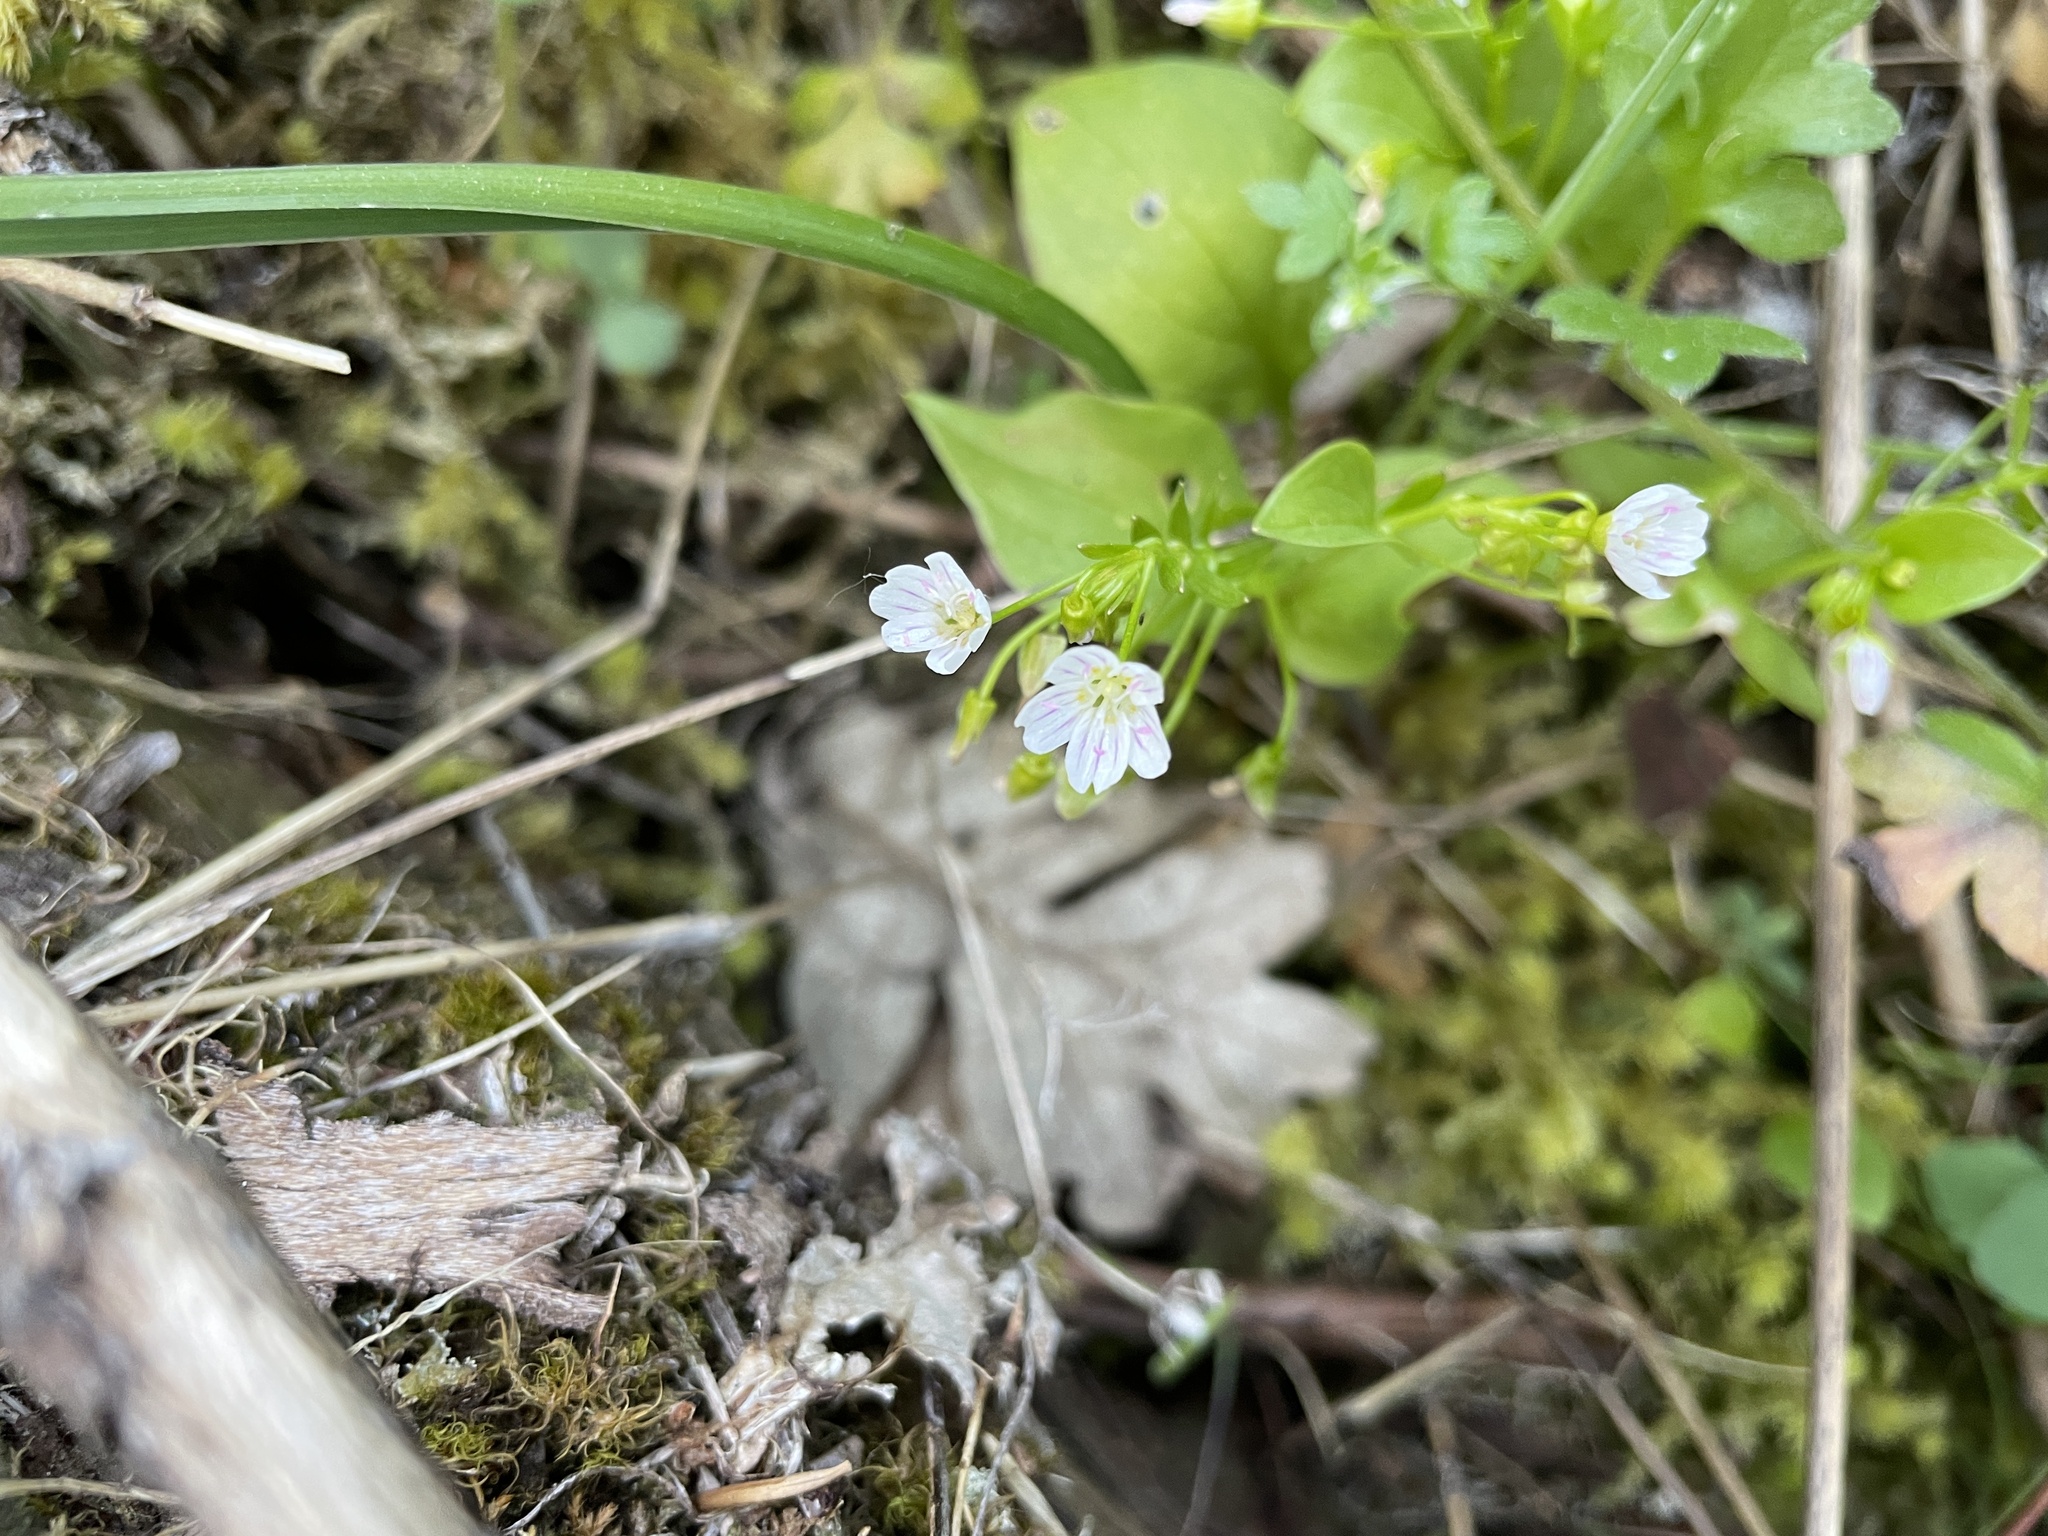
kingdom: Plantae
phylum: Tracheophyta
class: Magnoliopsida
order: Caryophyllales
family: Montiaceae
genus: Claytonia
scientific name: Claytonia sibirica
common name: Pink purslane
